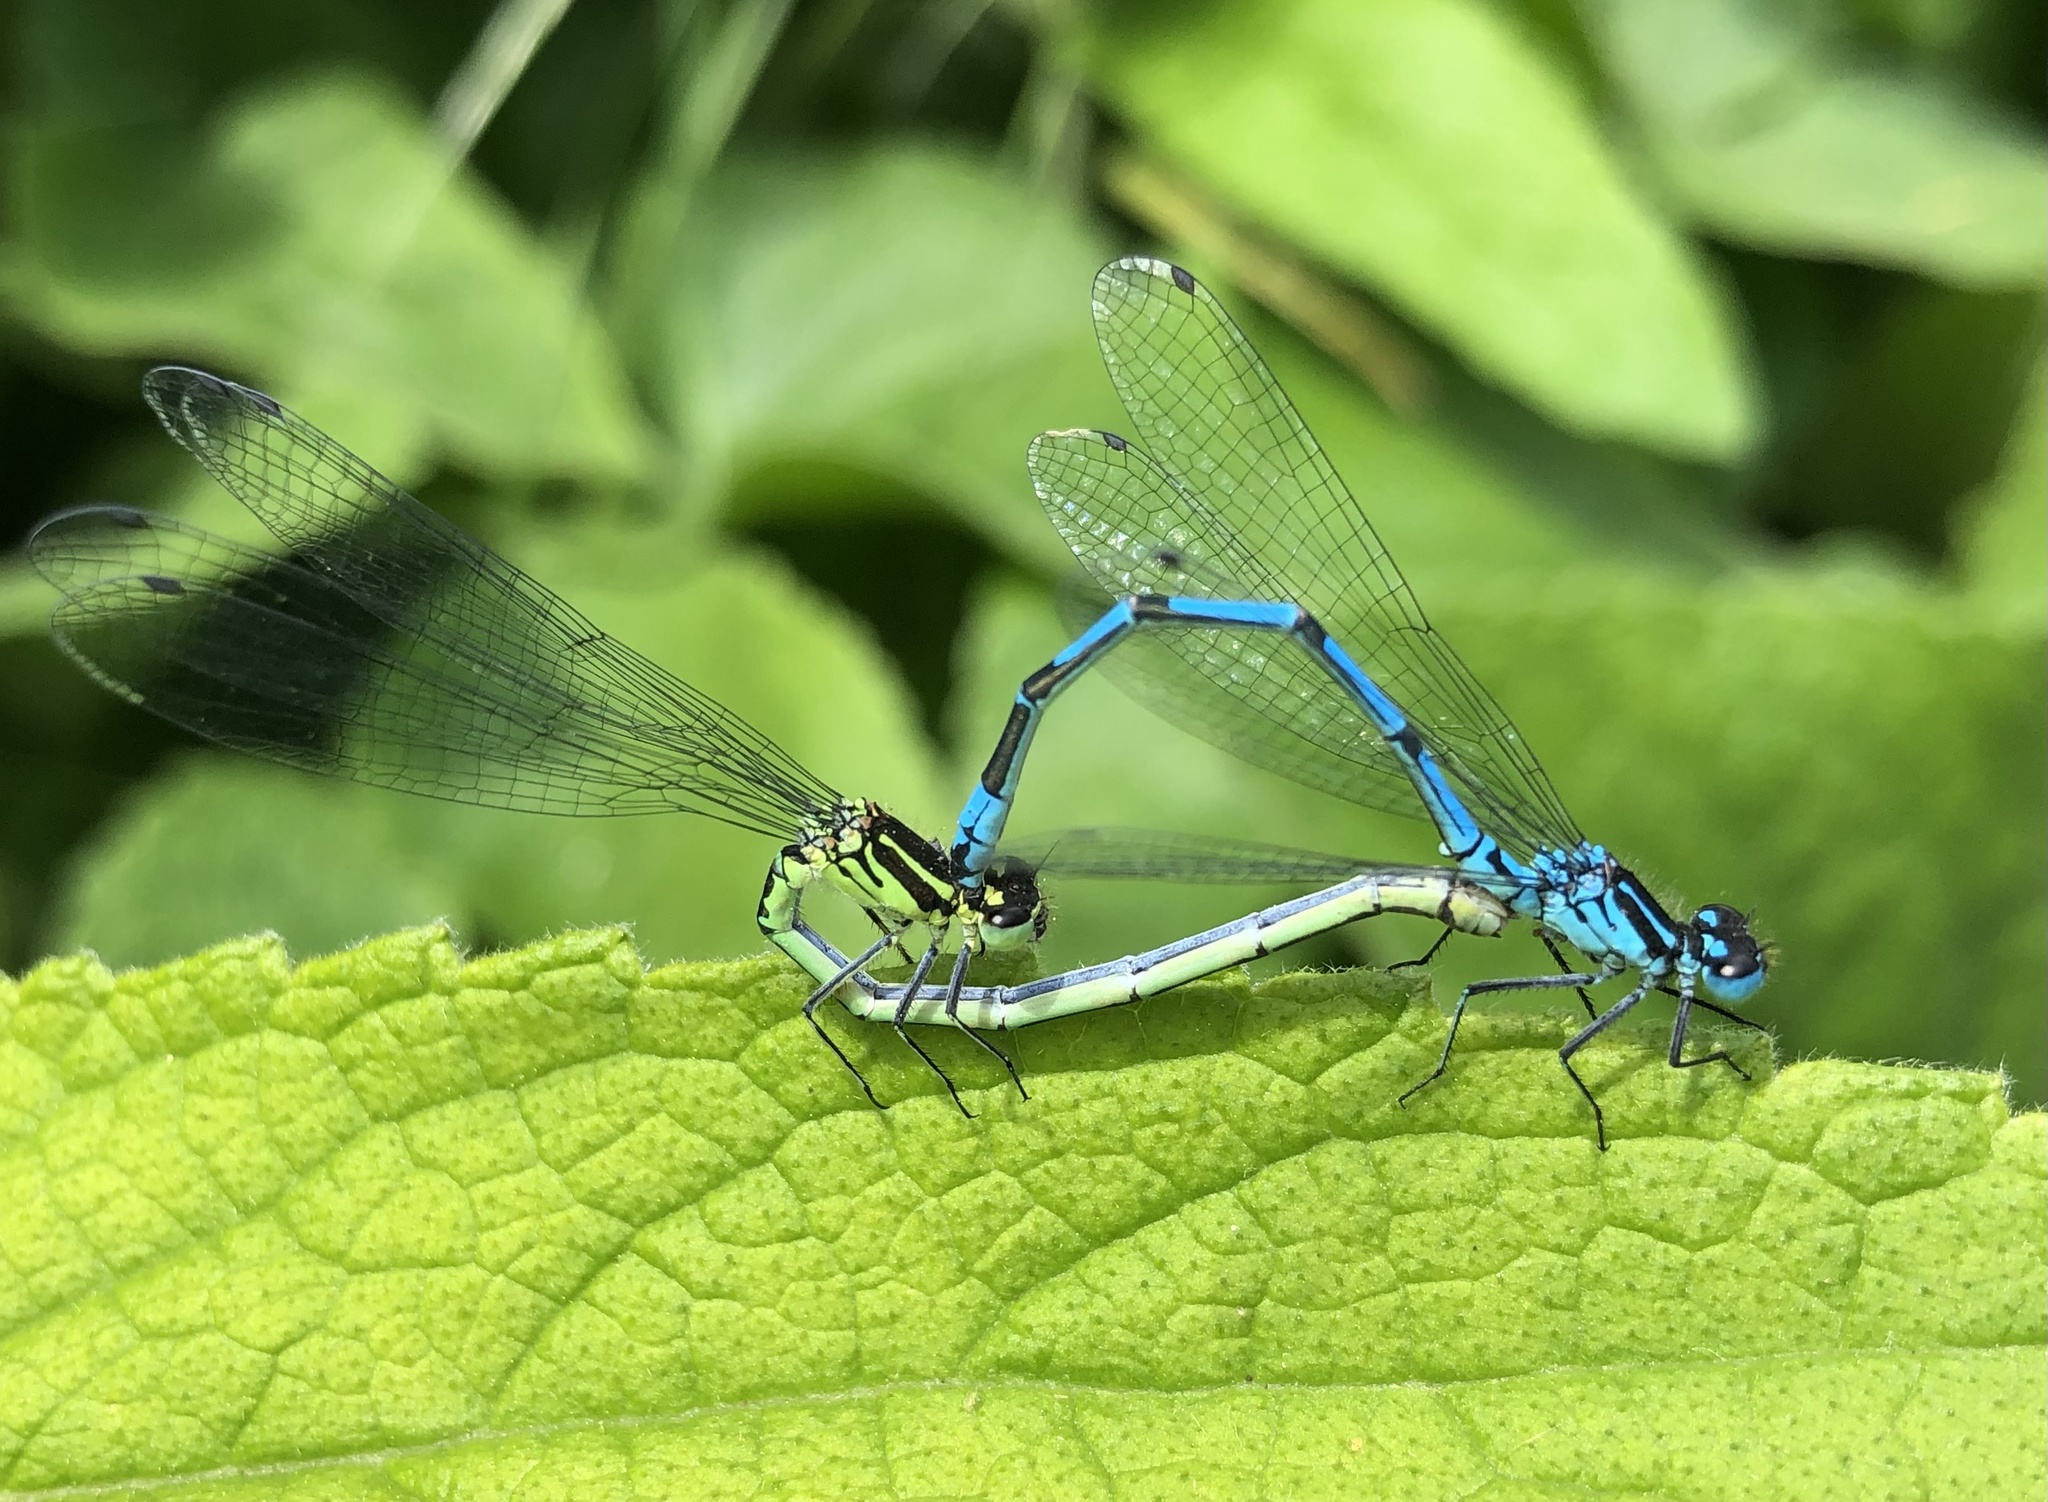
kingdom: Animalia
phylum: Arthropoda
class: Insecta
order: Odonata
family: Coenagrionidae
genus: Coenagrion
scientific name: Coenagrion puella
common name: Azure damselfly
